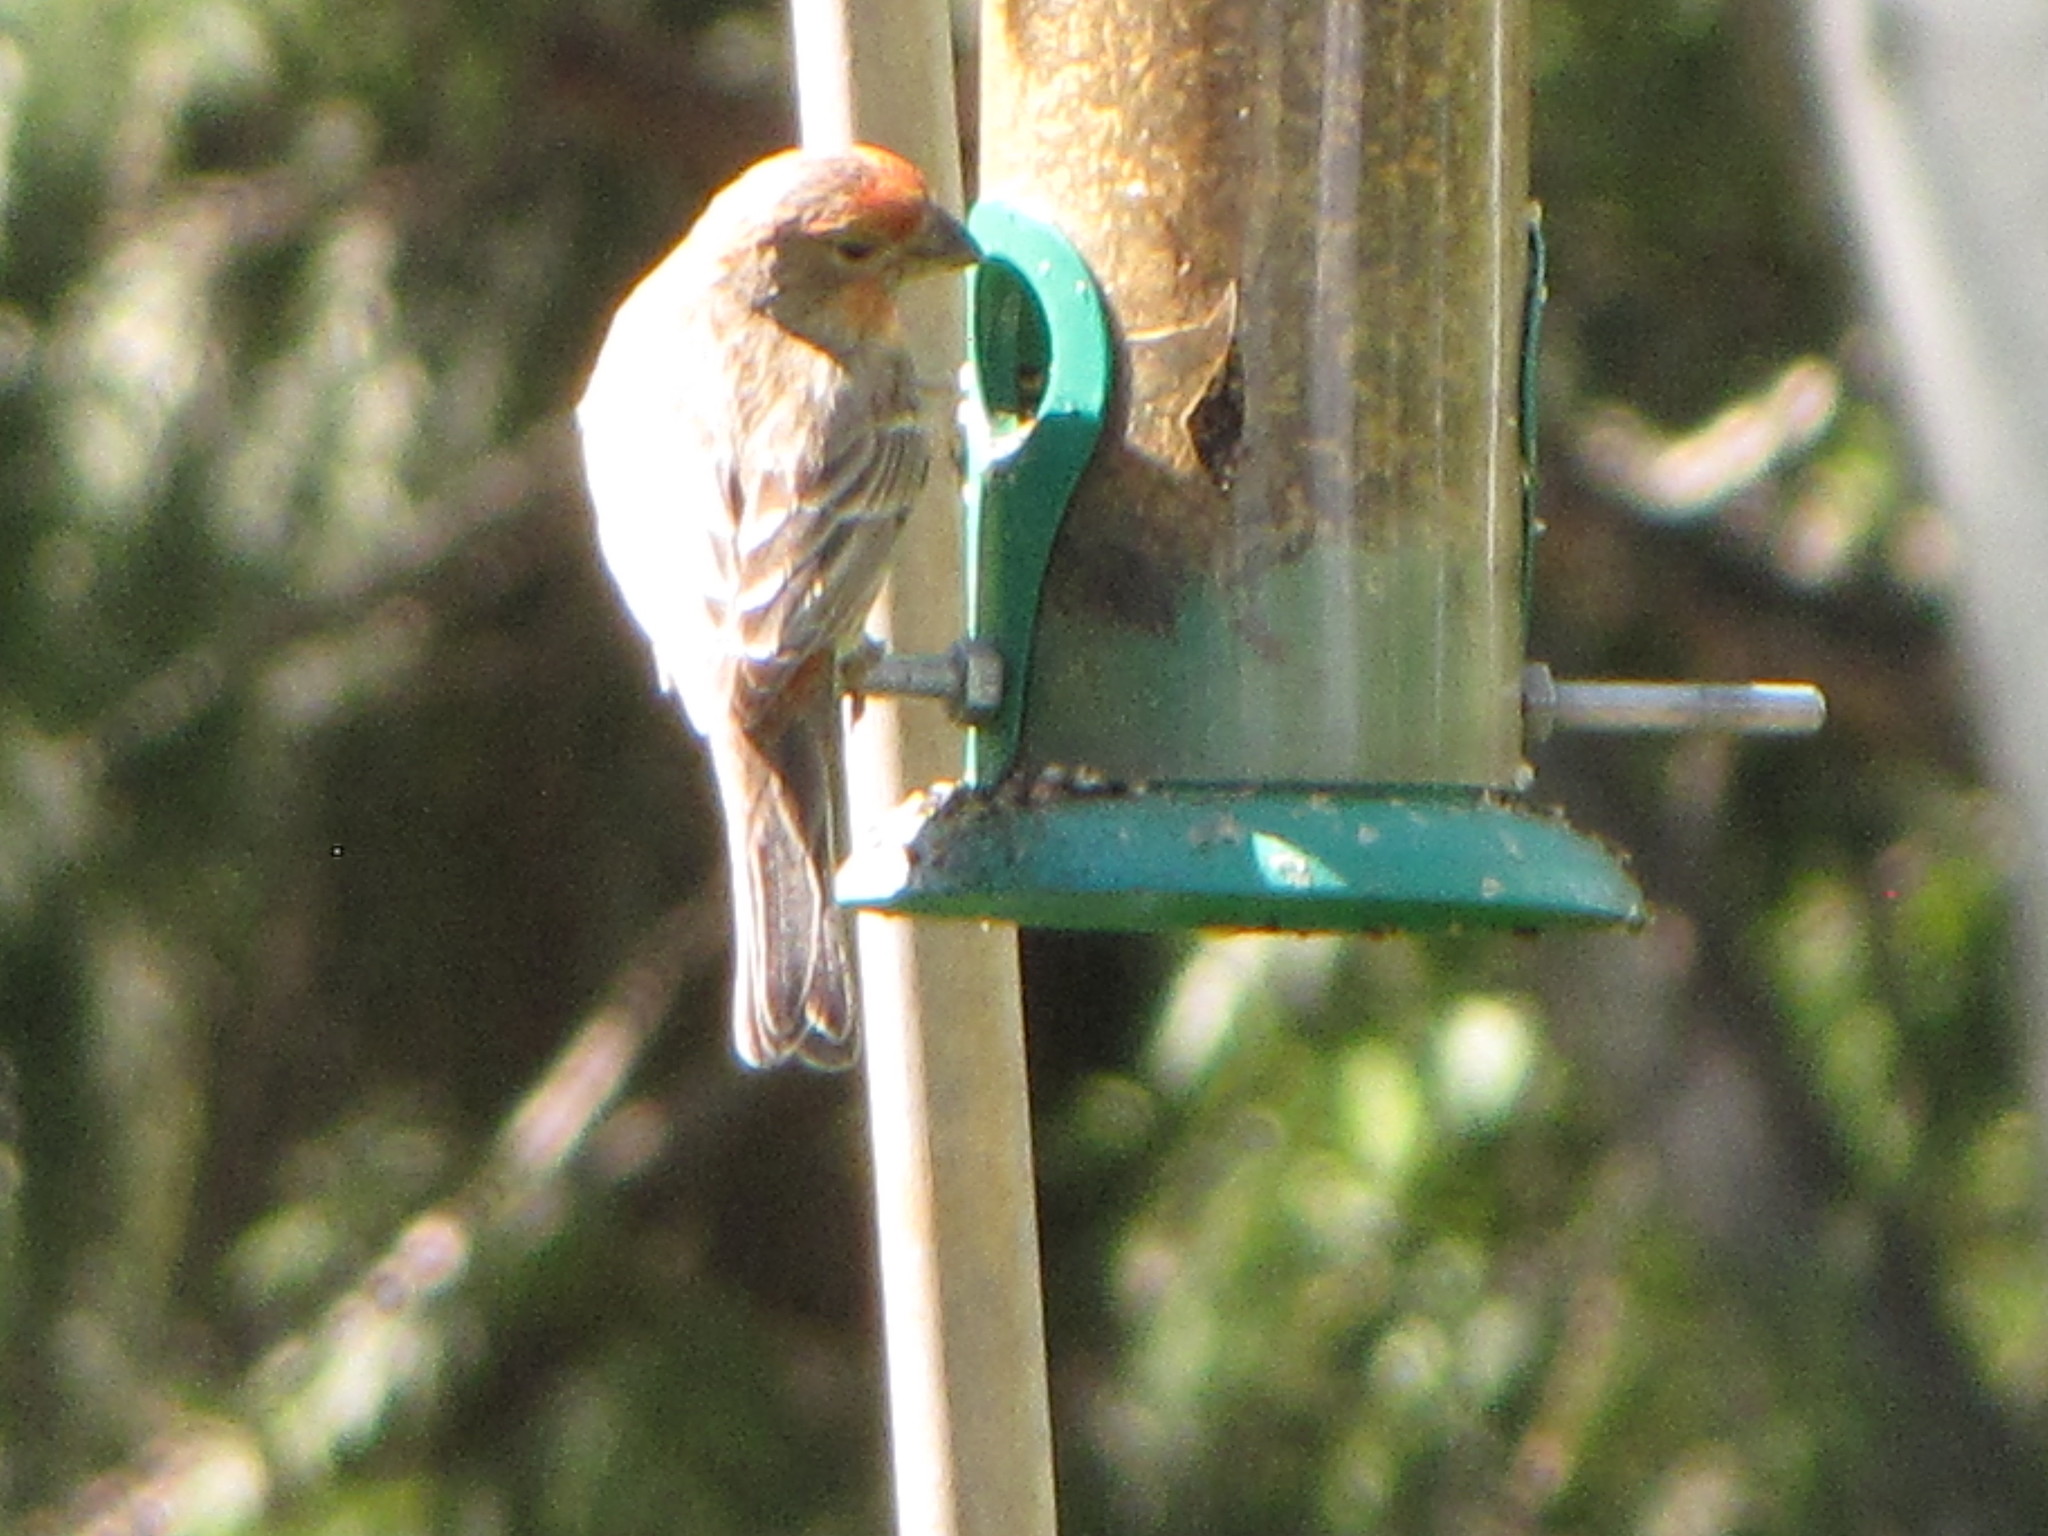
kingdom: Animalia
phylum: Chordata
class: Aves
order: Passeriformes
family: Fringillidae
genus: Haemorhous
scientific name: Haemorhous mexicanus
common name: House finch
